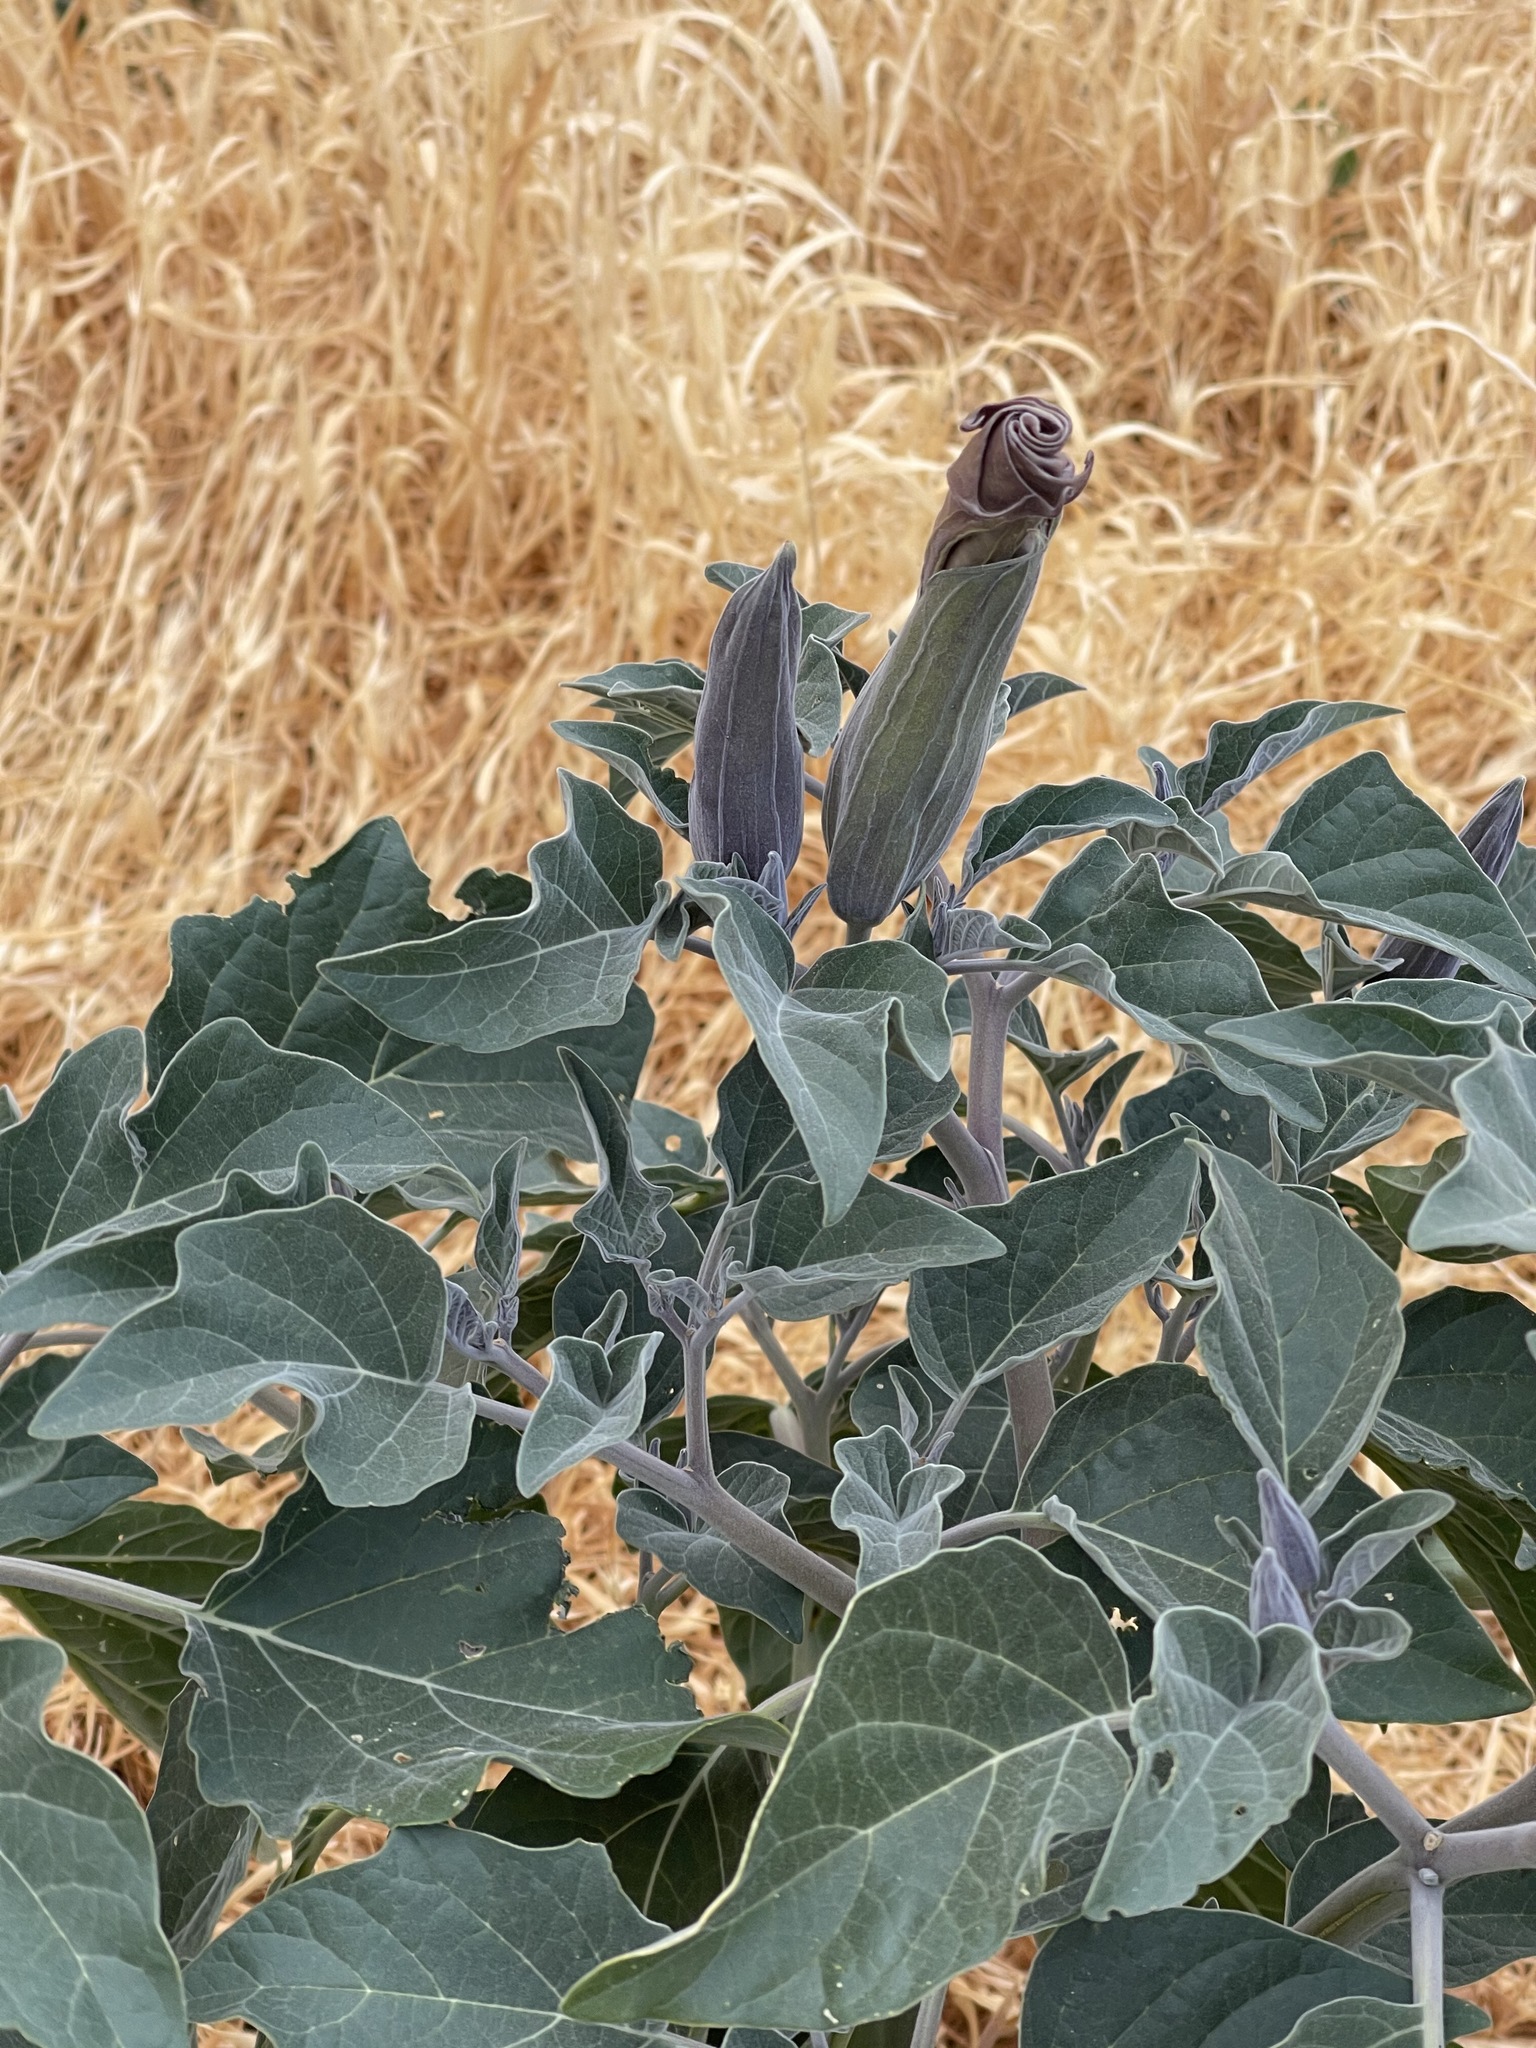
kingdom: Plantae
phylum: Tracheophyta
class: Magnoliopsida
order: Solanales
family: Solanaceae
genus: Datura
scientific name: Datura wrightii
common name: Sacred thorn-apple
